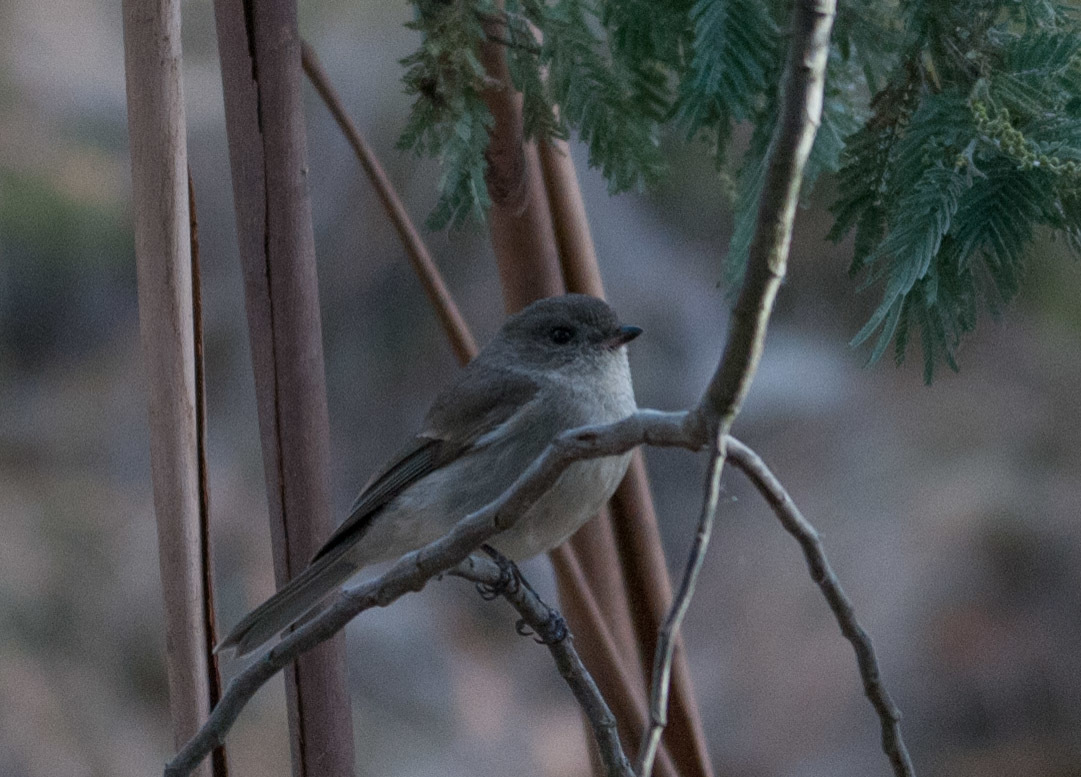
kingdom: Animalia
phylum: Chordata
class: Aves
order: Passeriformes
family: Pachycephalidae
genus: Pachycephala
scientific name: Pachycephala pectoralis
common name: Australian golden whistler
